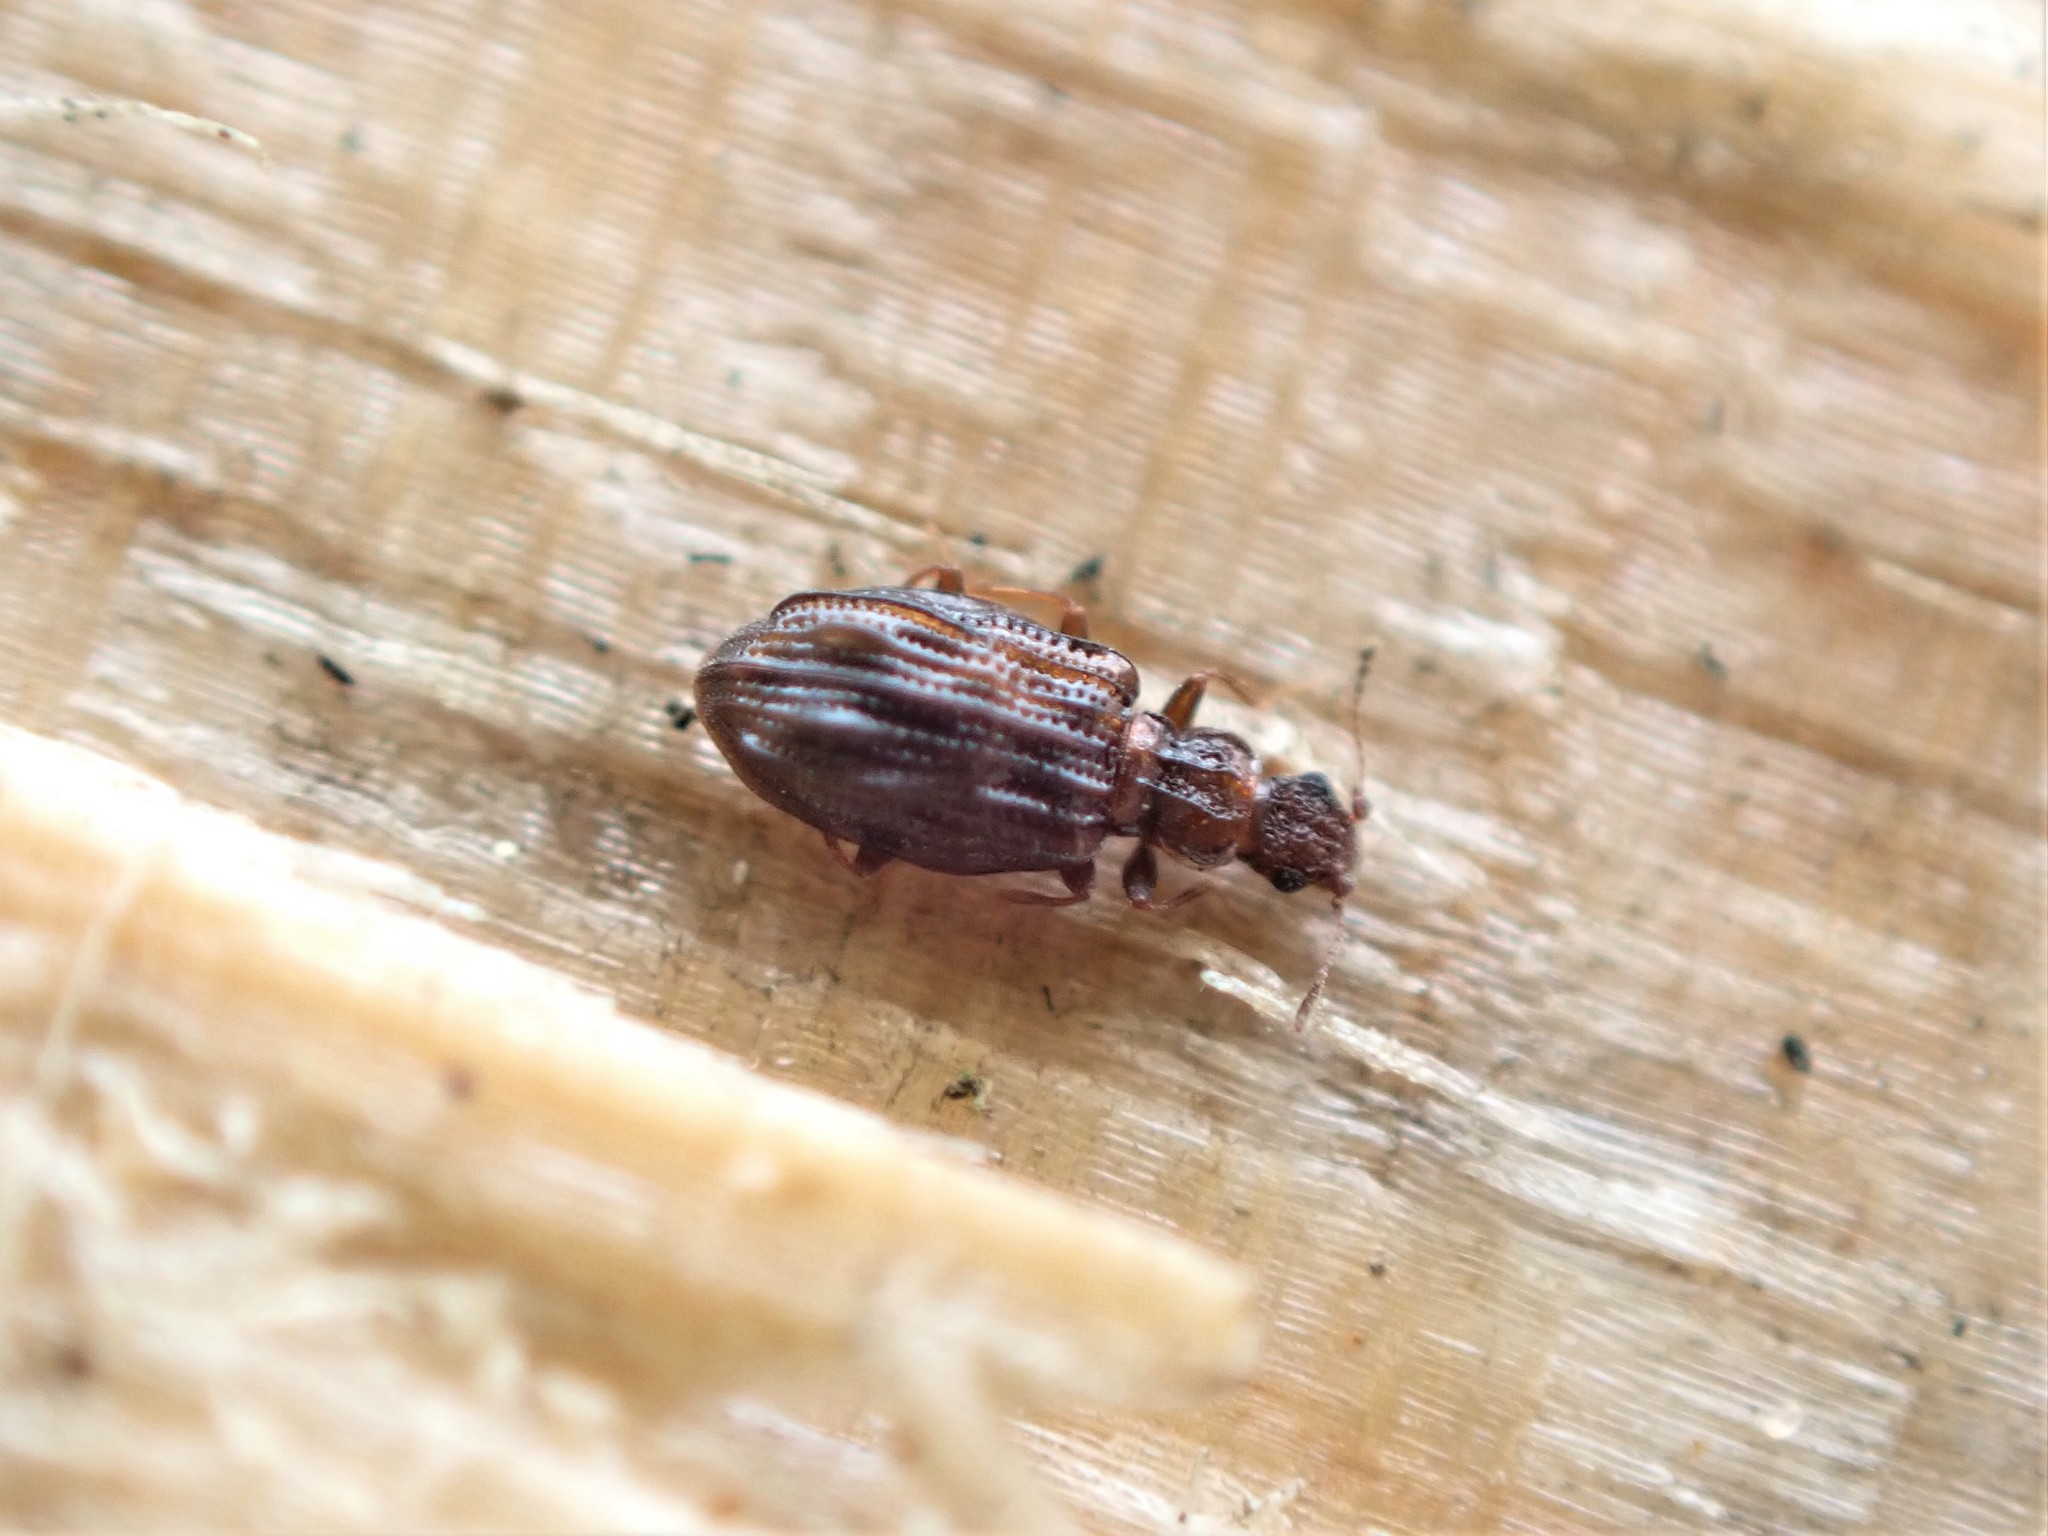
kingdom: Animalia
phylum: Arthropoda
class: Insecta
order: Coleoptera
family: Latridiidae
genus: Cartodere
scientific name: Cartodere nodifer
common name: Humpbacked minute scavenger beetle
